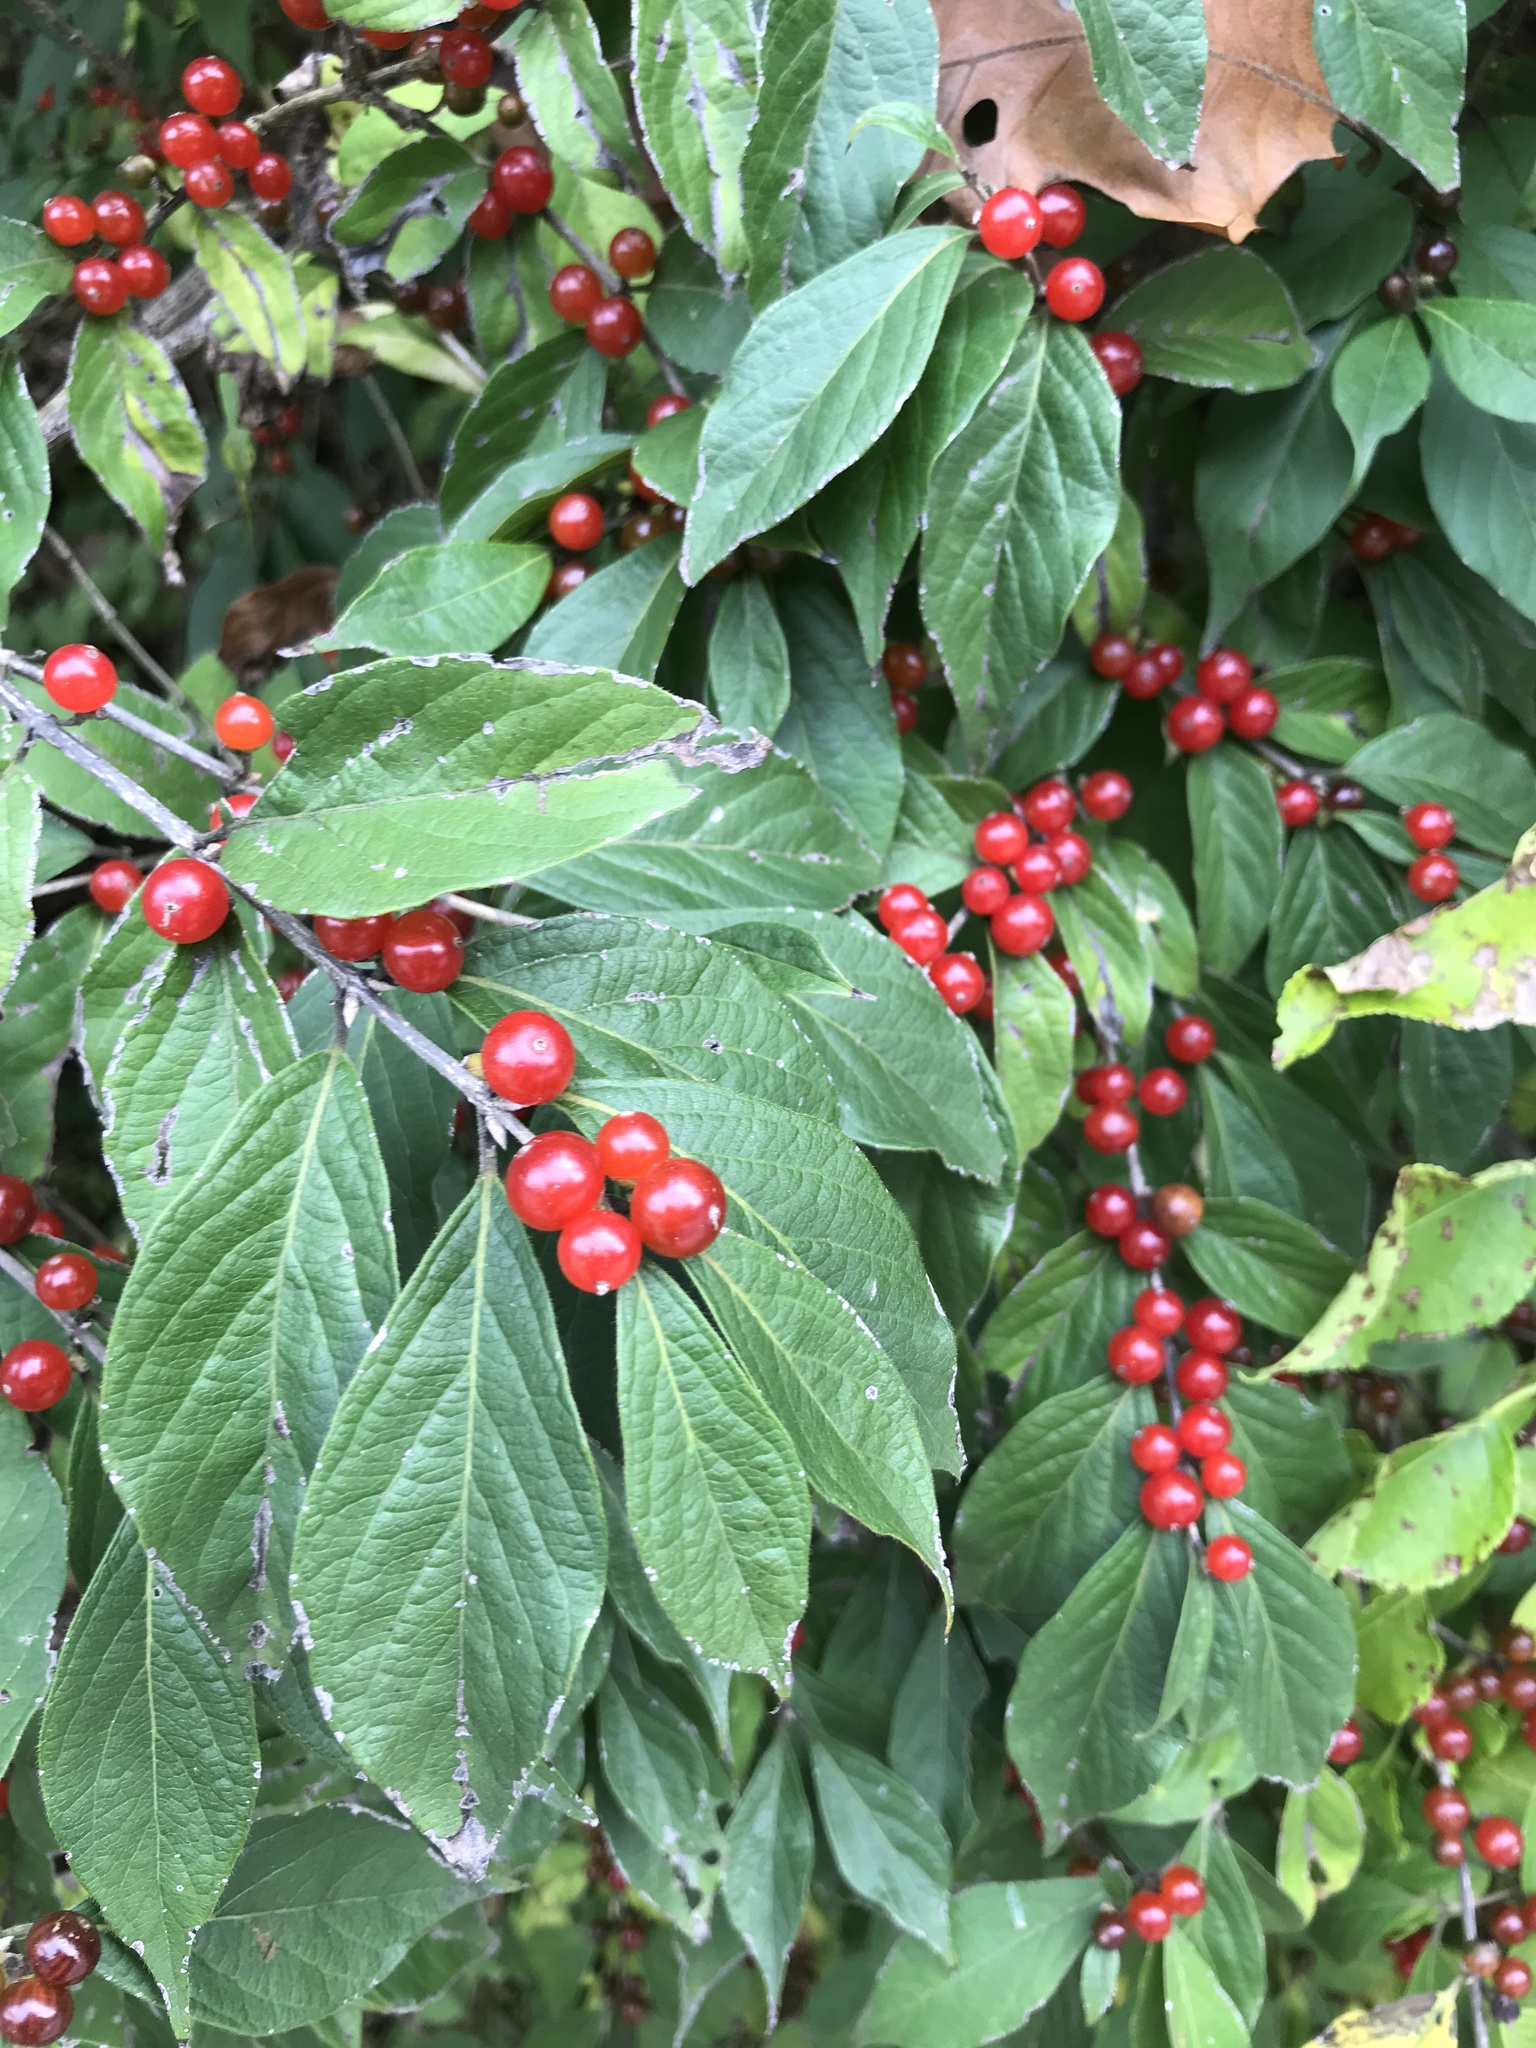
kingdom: Plantae
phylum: Tracheophyta
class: Magnoliopsida
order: Dipsacales
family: Caprifoliaceae
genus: Lonicera
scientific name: Lonicera maackii
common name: Amur honeysuckle
